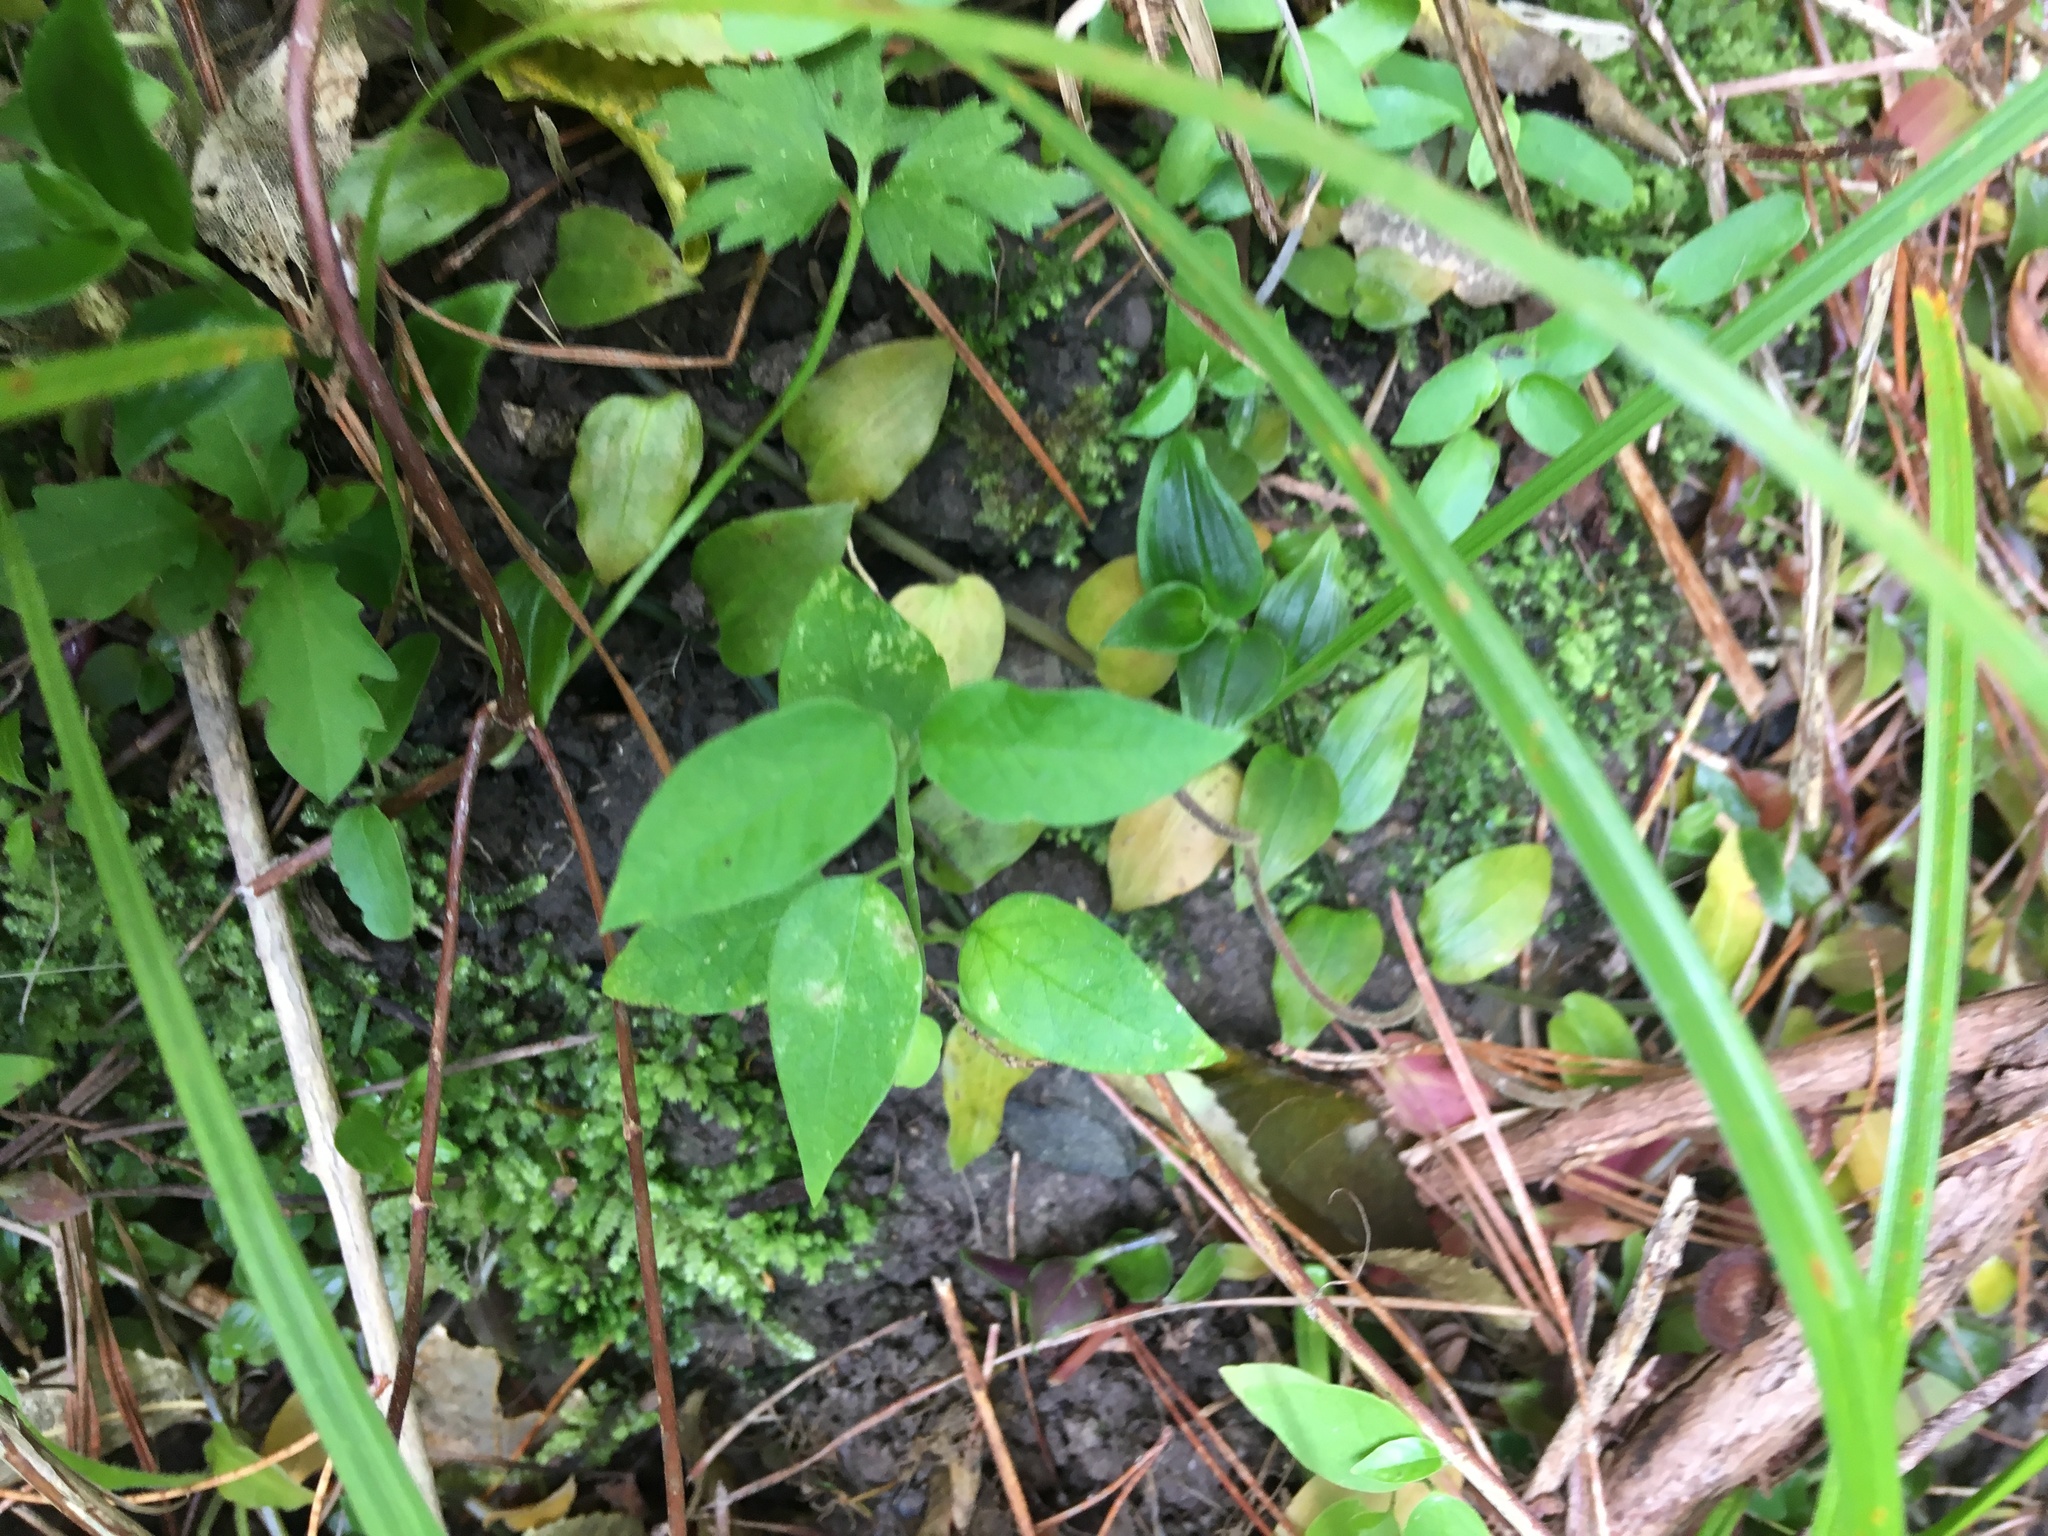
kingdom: Plantae
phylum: Tracheophyta
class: Magnoliopsida
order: Gentianales
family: Apocynaceae
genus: Araujia
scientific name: Araujia sericifera
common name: White bladderflower
